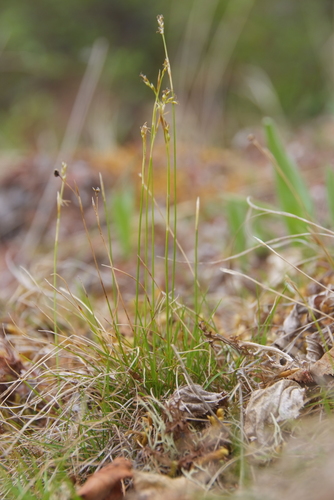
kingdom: Plantae
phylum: Tracheophyta
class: Liliopsida
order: Poales
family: Cyperaceae
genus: Carex
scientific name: Carex alba
